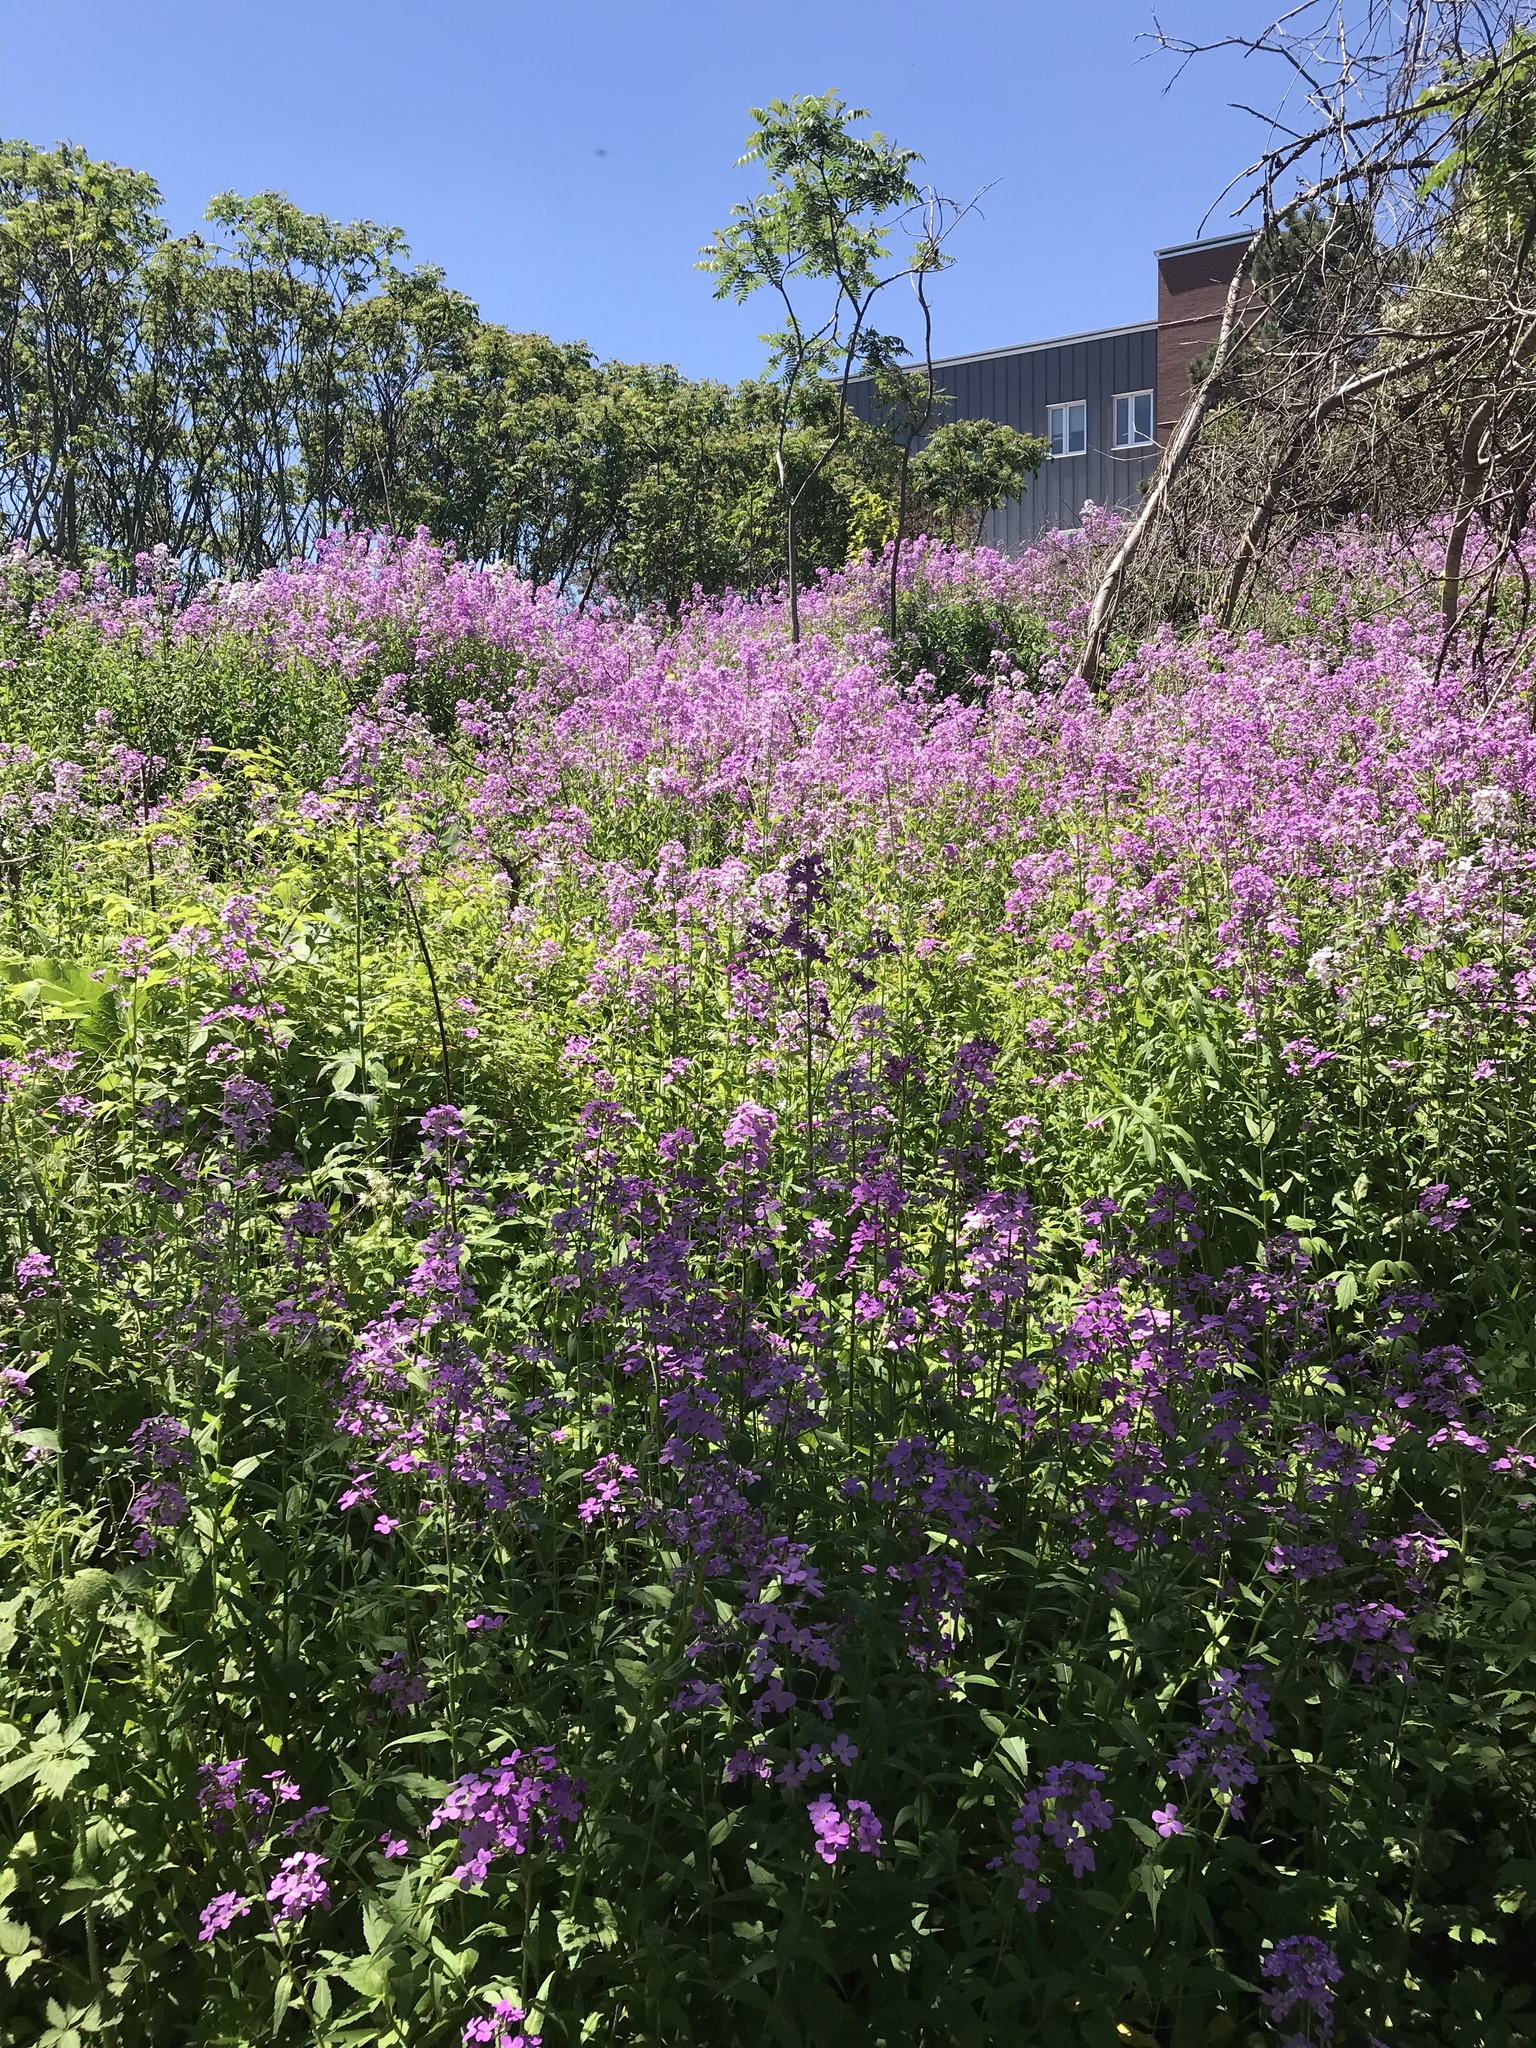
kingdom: Plantae
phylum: Tracheophyta
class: Magnoliopsida
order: Brassicales
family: Brassicaceae
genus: Hesperis
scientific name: Hesperis matronalis
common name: Dame's-violet
